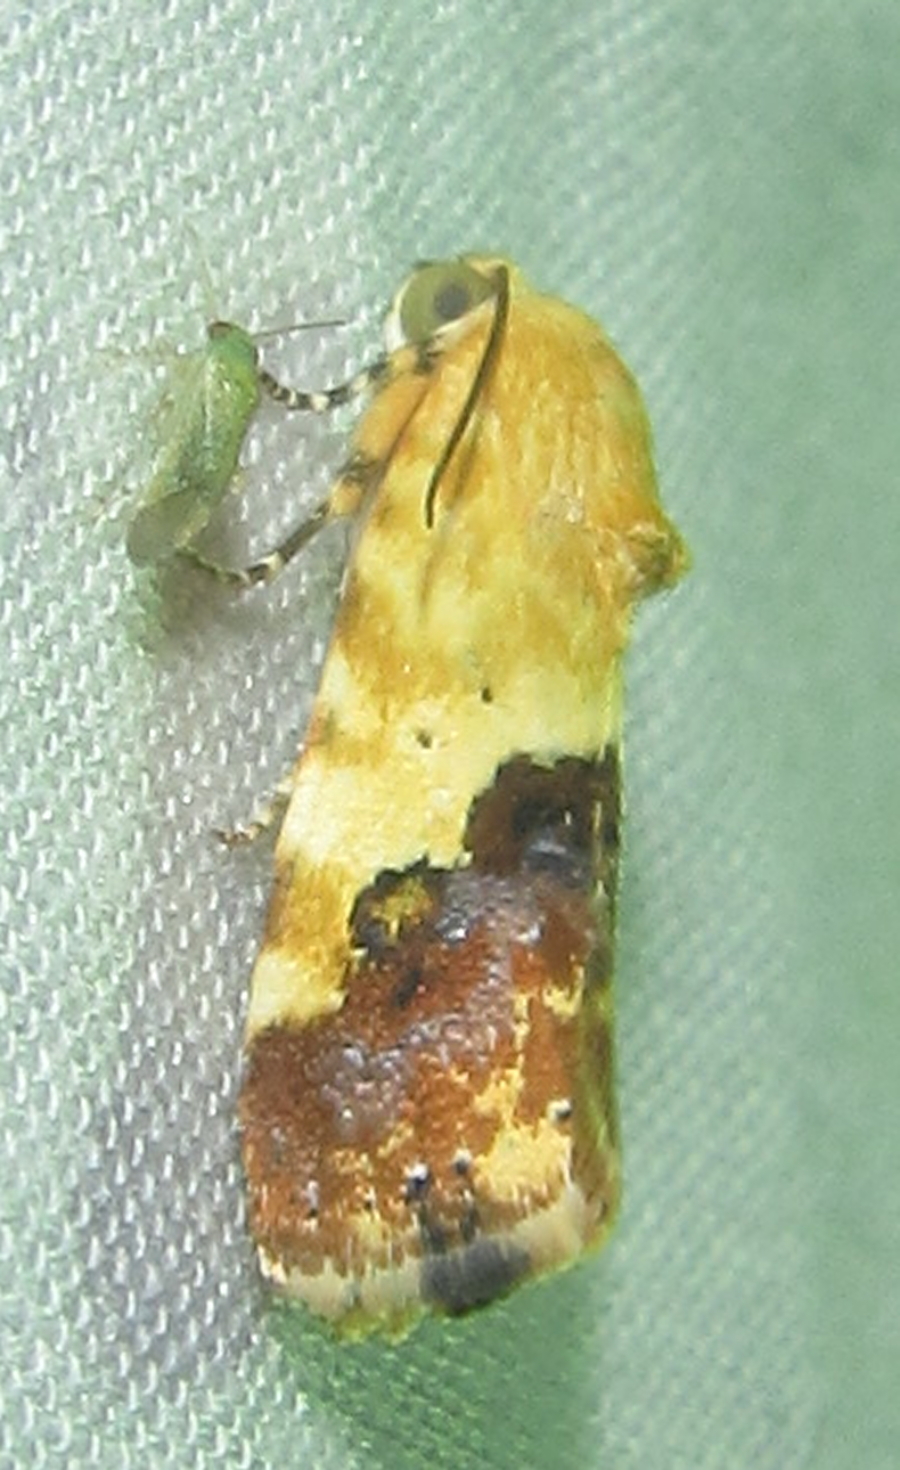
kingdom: Animalia
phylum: Arthropoda
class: Insecta
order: Lepidoptera
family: Noctuidae
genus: Acontia
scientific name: Acontia zelleri
